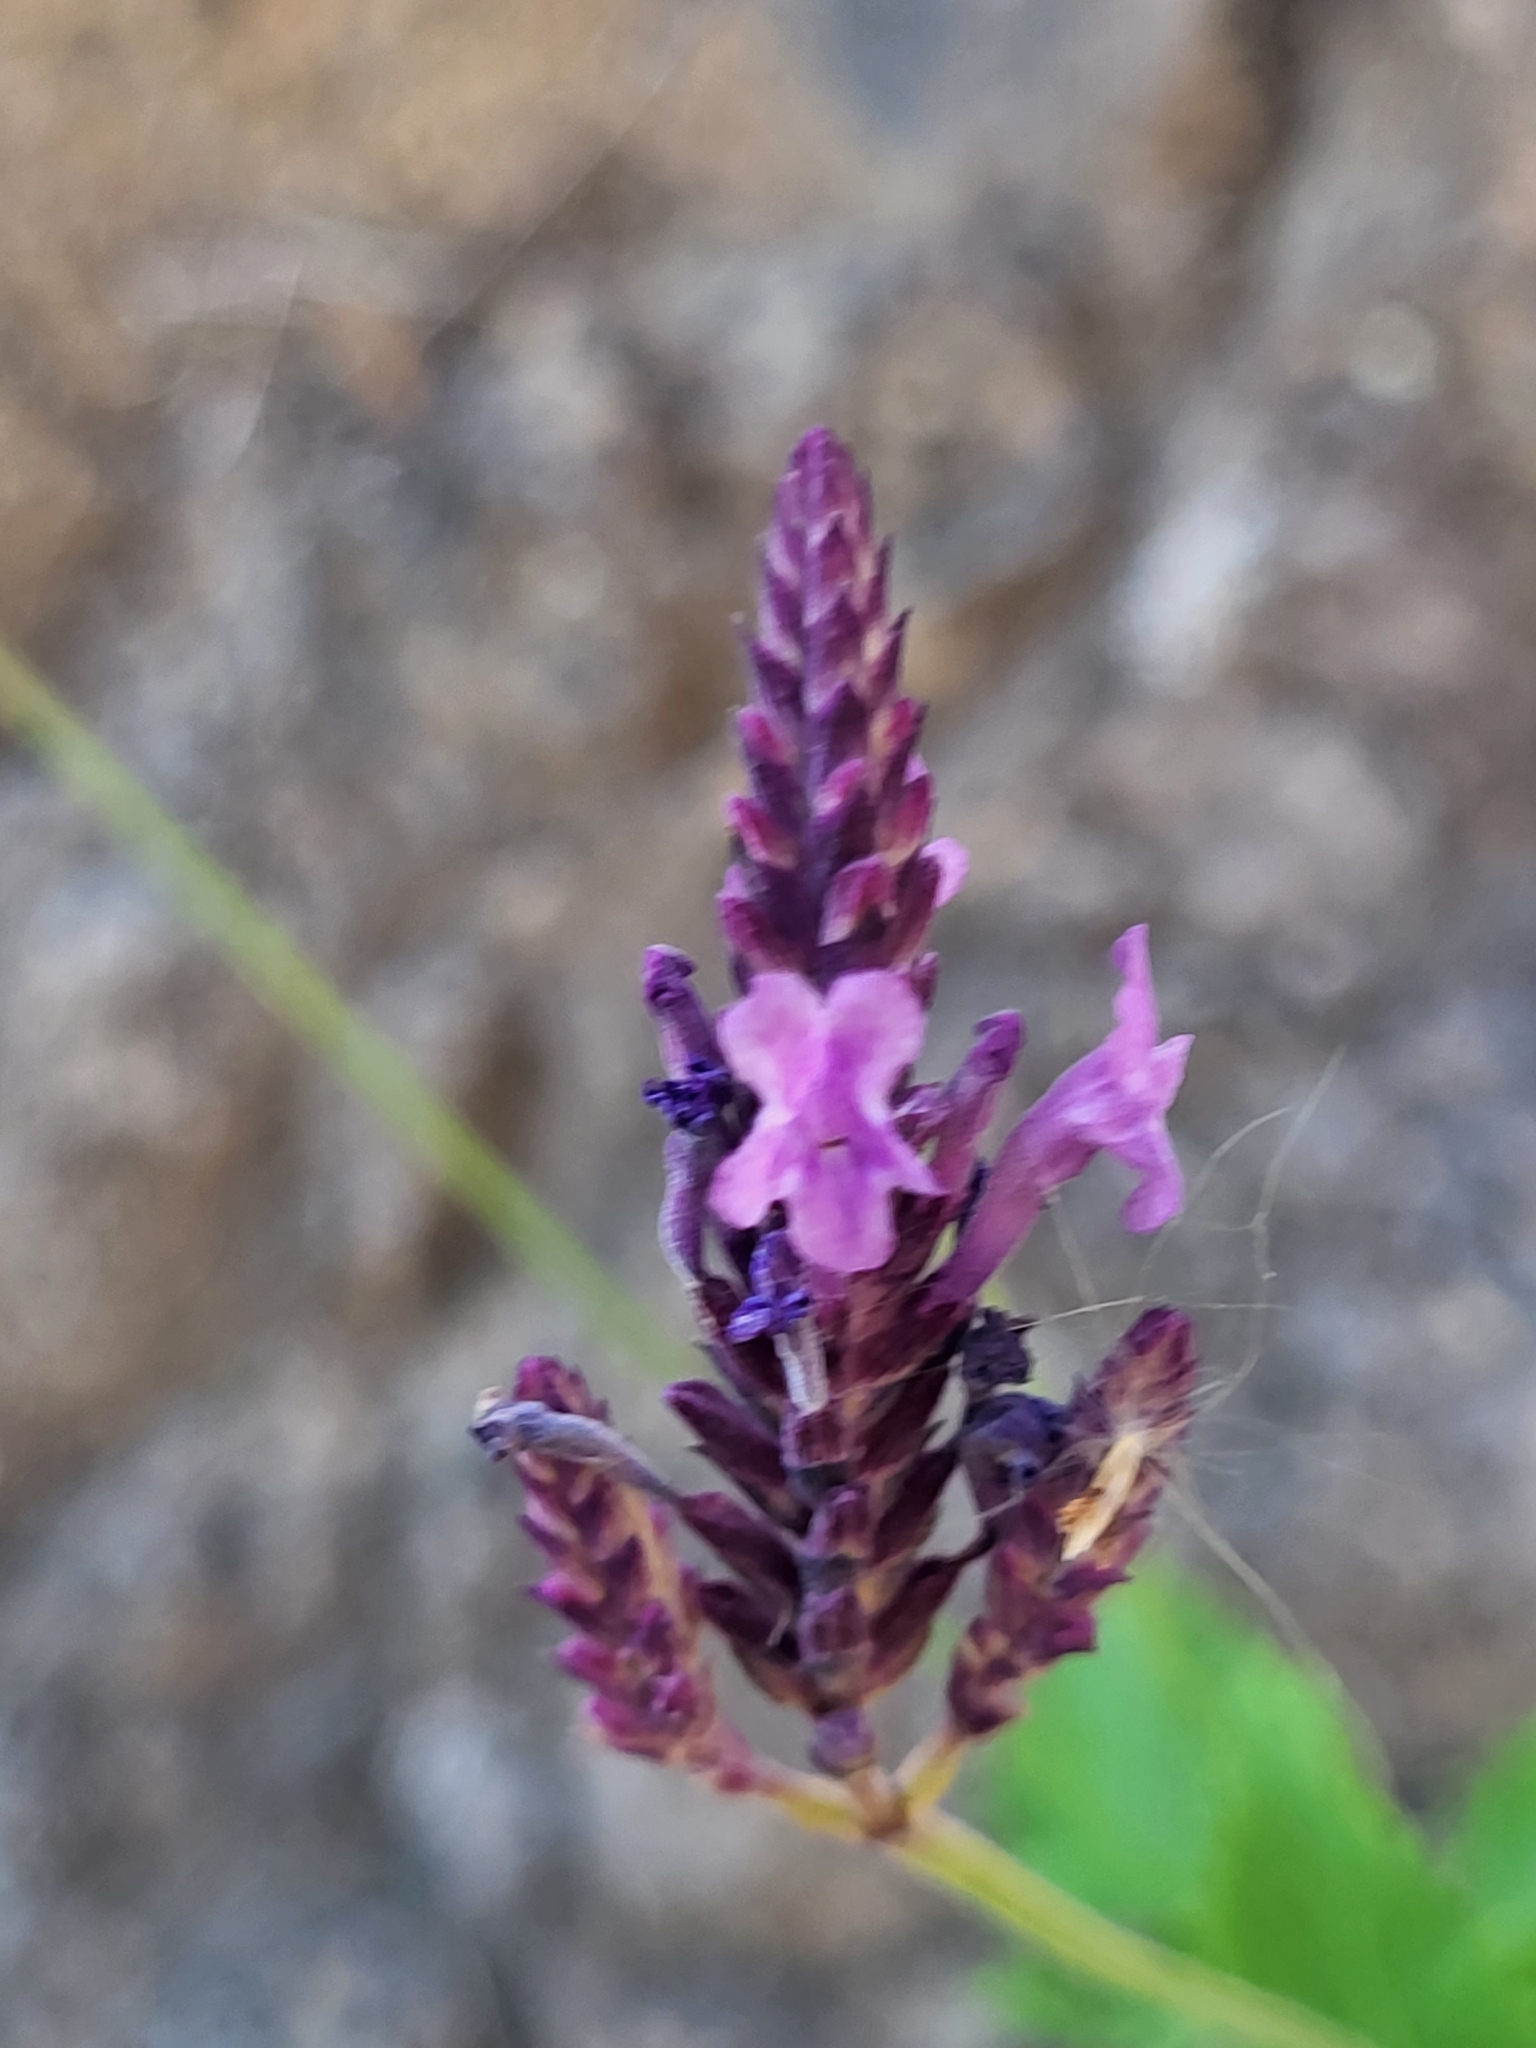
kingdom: Plantae
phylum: Tracheophyta
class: Magnoliopsida
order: Lamiales
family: Lamiaceae
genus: Lavandula
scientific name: Lavandula rotundifolia
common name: Round-leaf lavender
